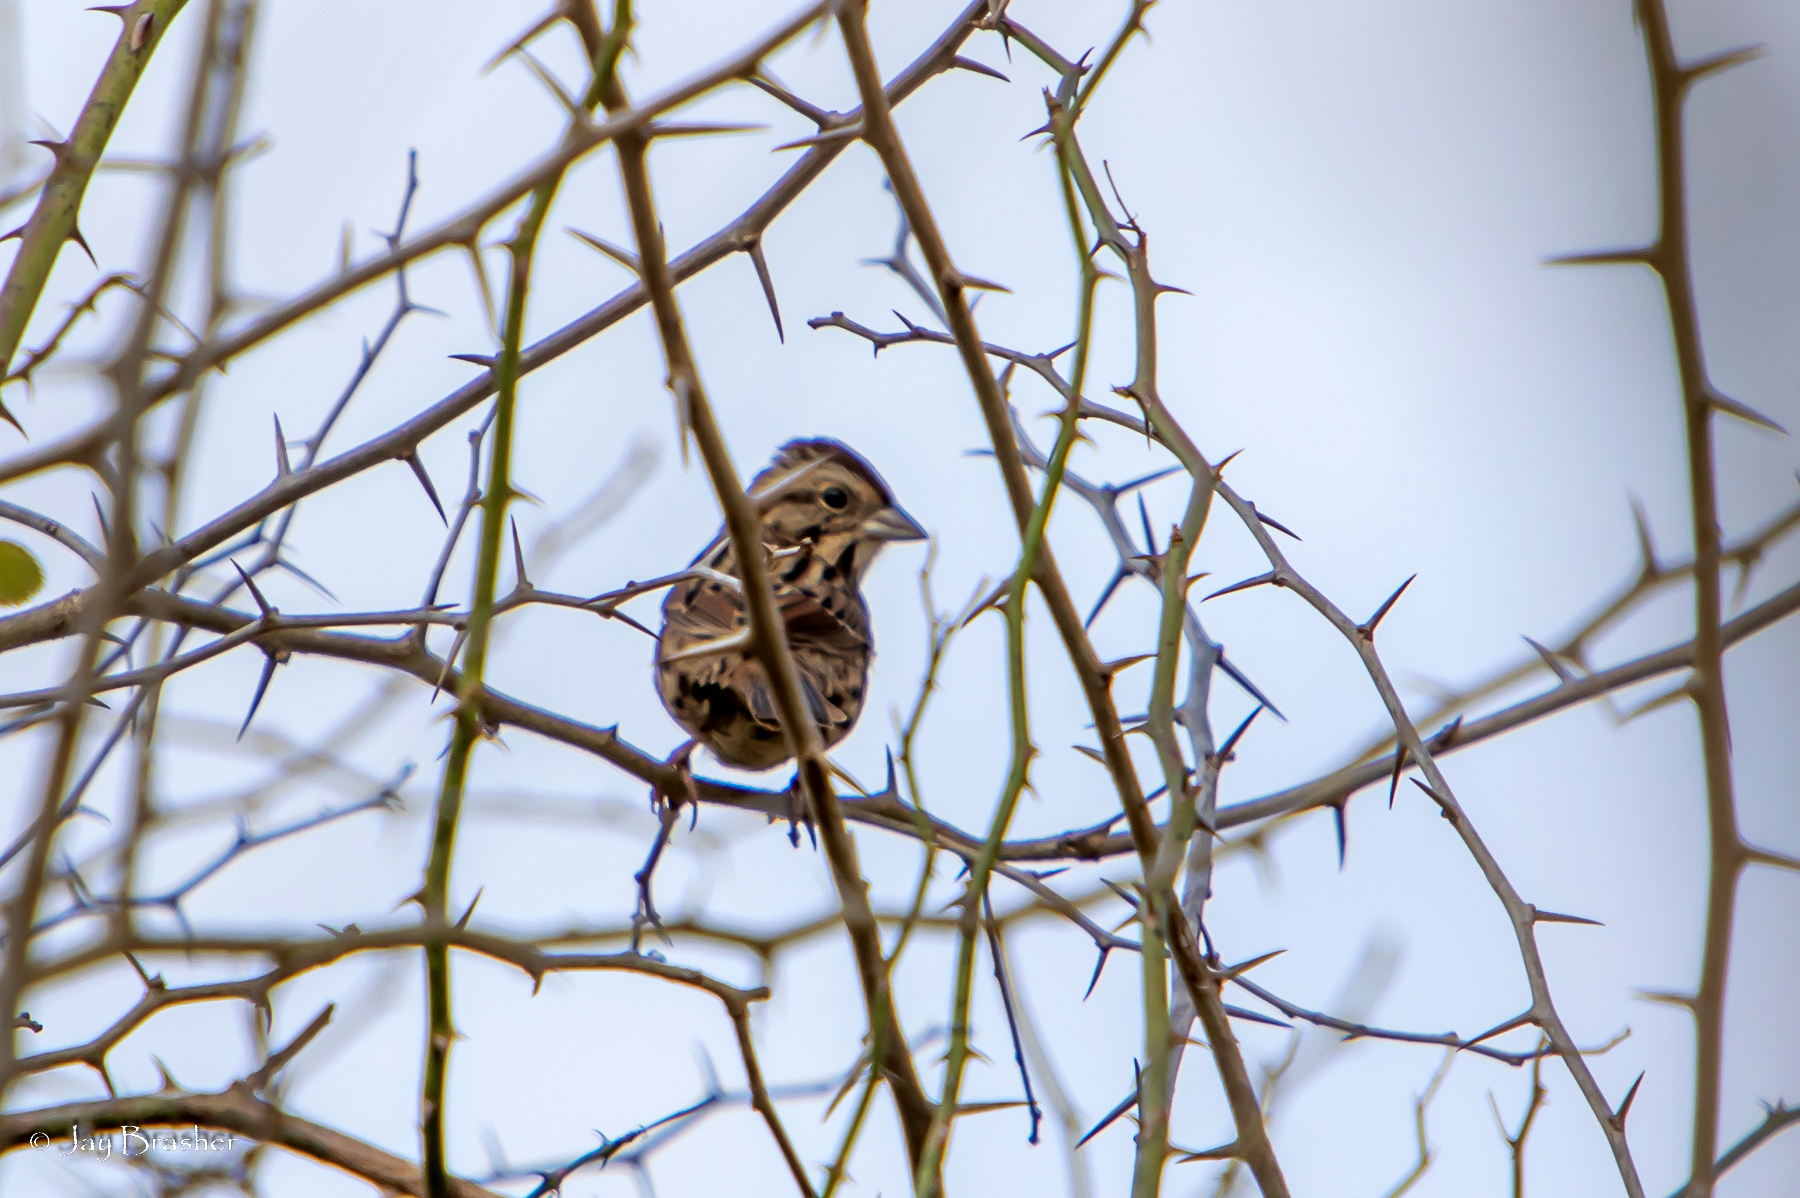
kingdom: Animalia
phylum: Chordata
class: Aves
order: Passeriformes
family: Passerellidae
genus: Melospiza
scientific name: Melospiza lincolnii
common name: Lincoln's sparrow
